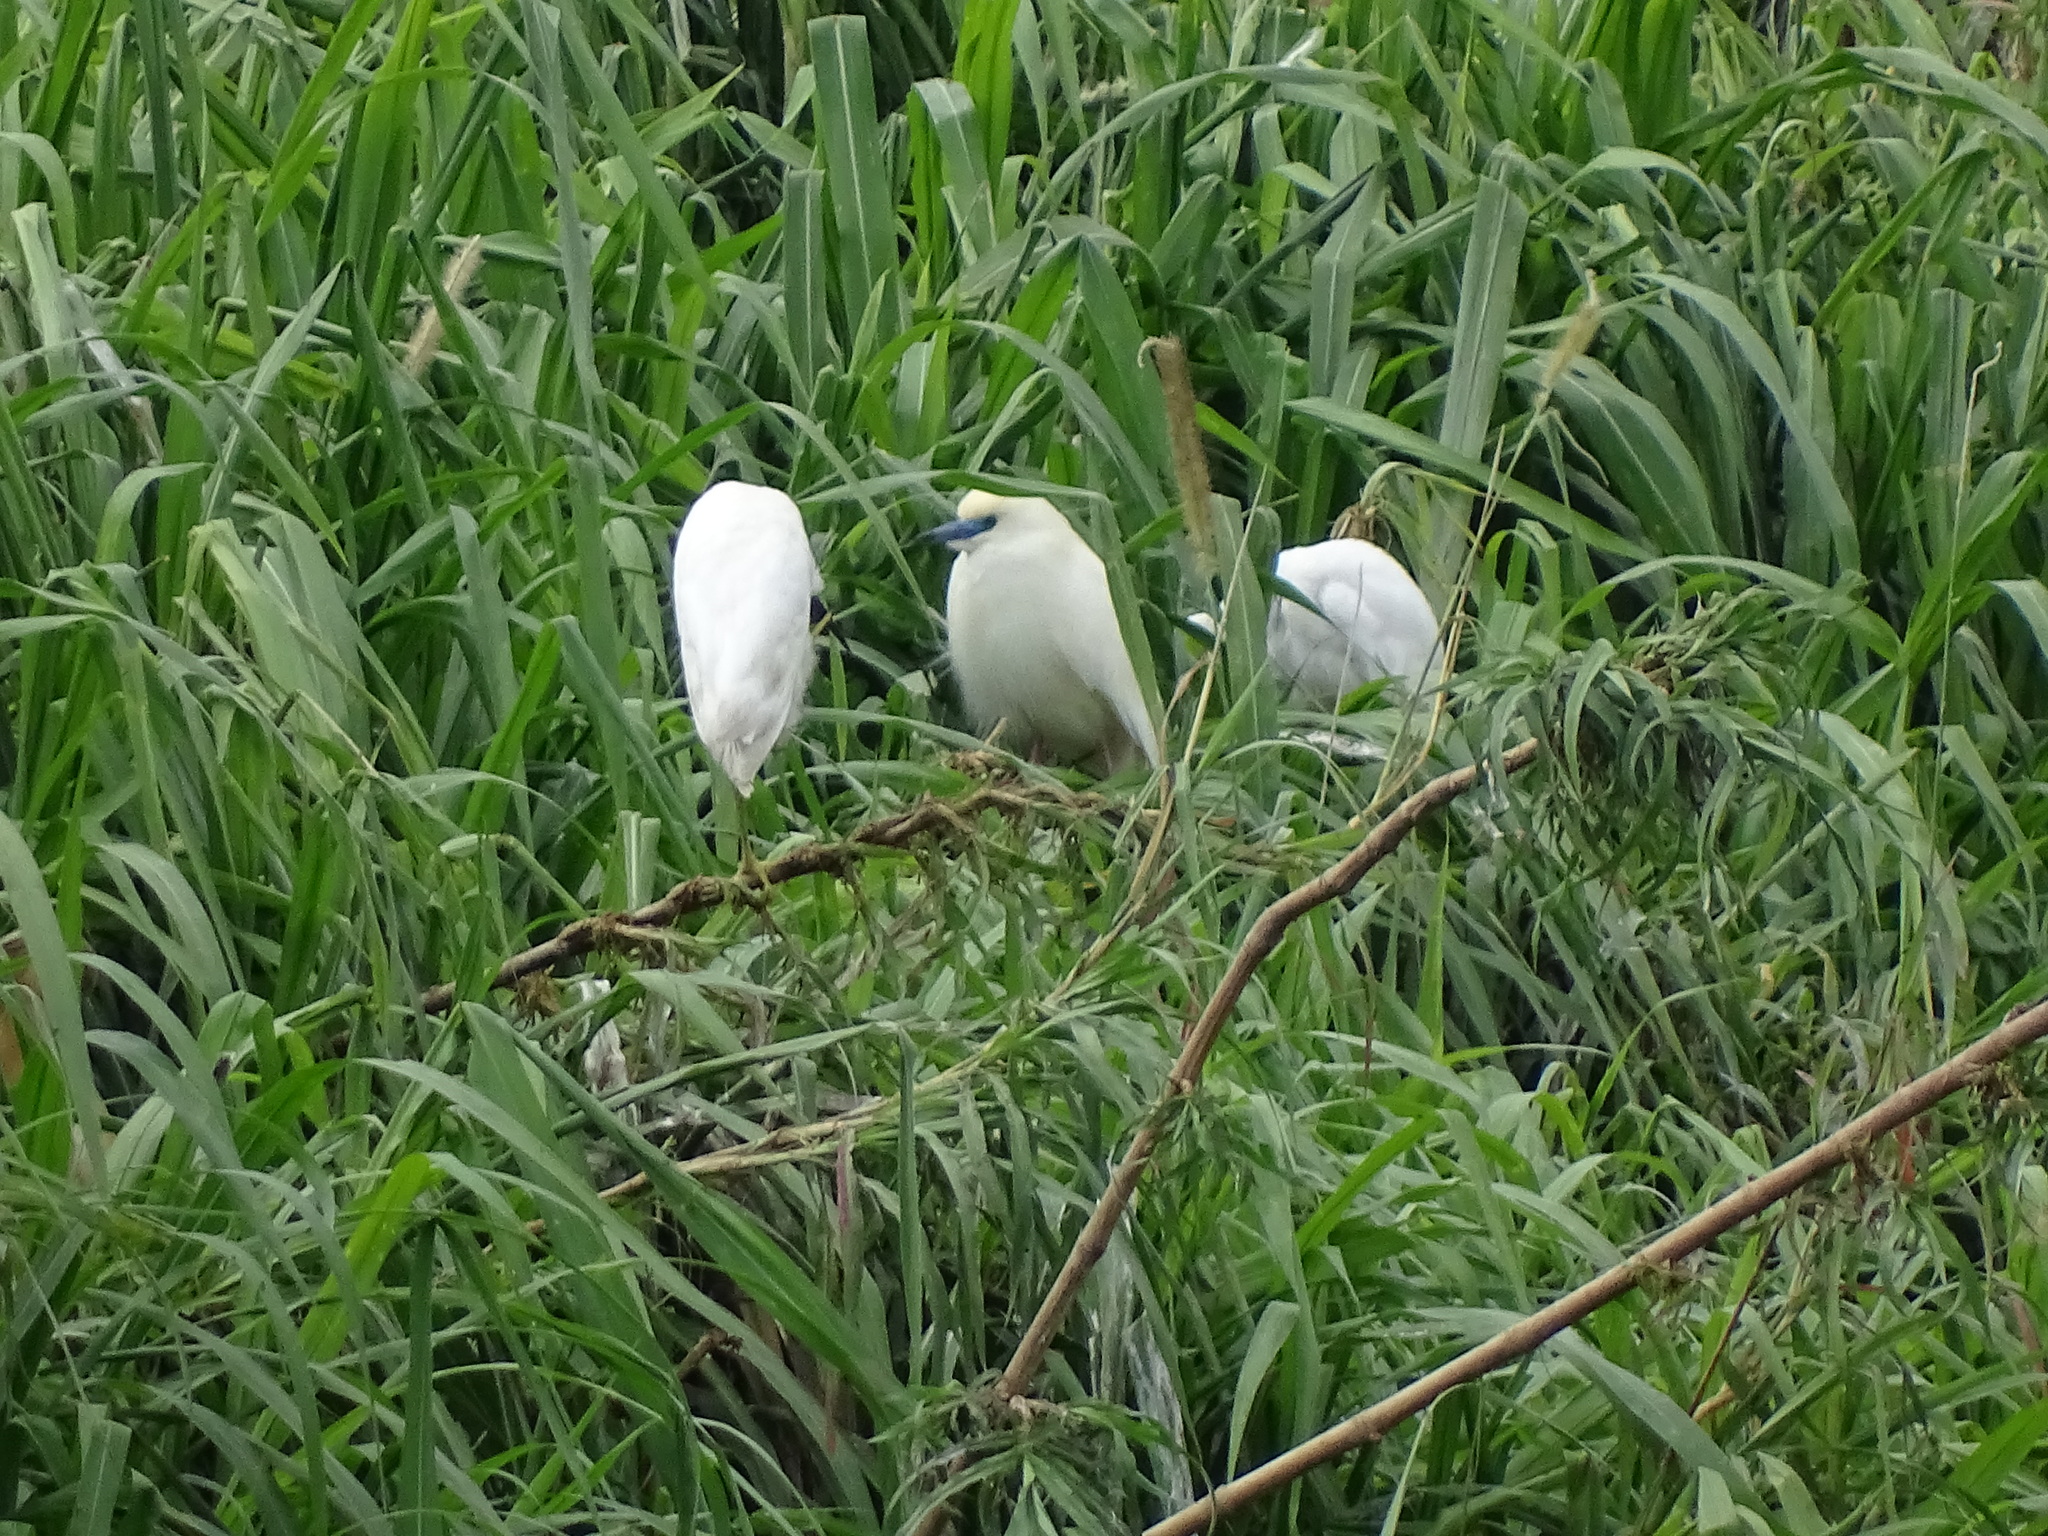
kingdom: Animalia
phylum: Chordata
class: Aves
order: Pelecaniformes
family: Ardeidae
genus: Ardeola
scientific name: Ardeola idae
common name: Malagasy pond heron
